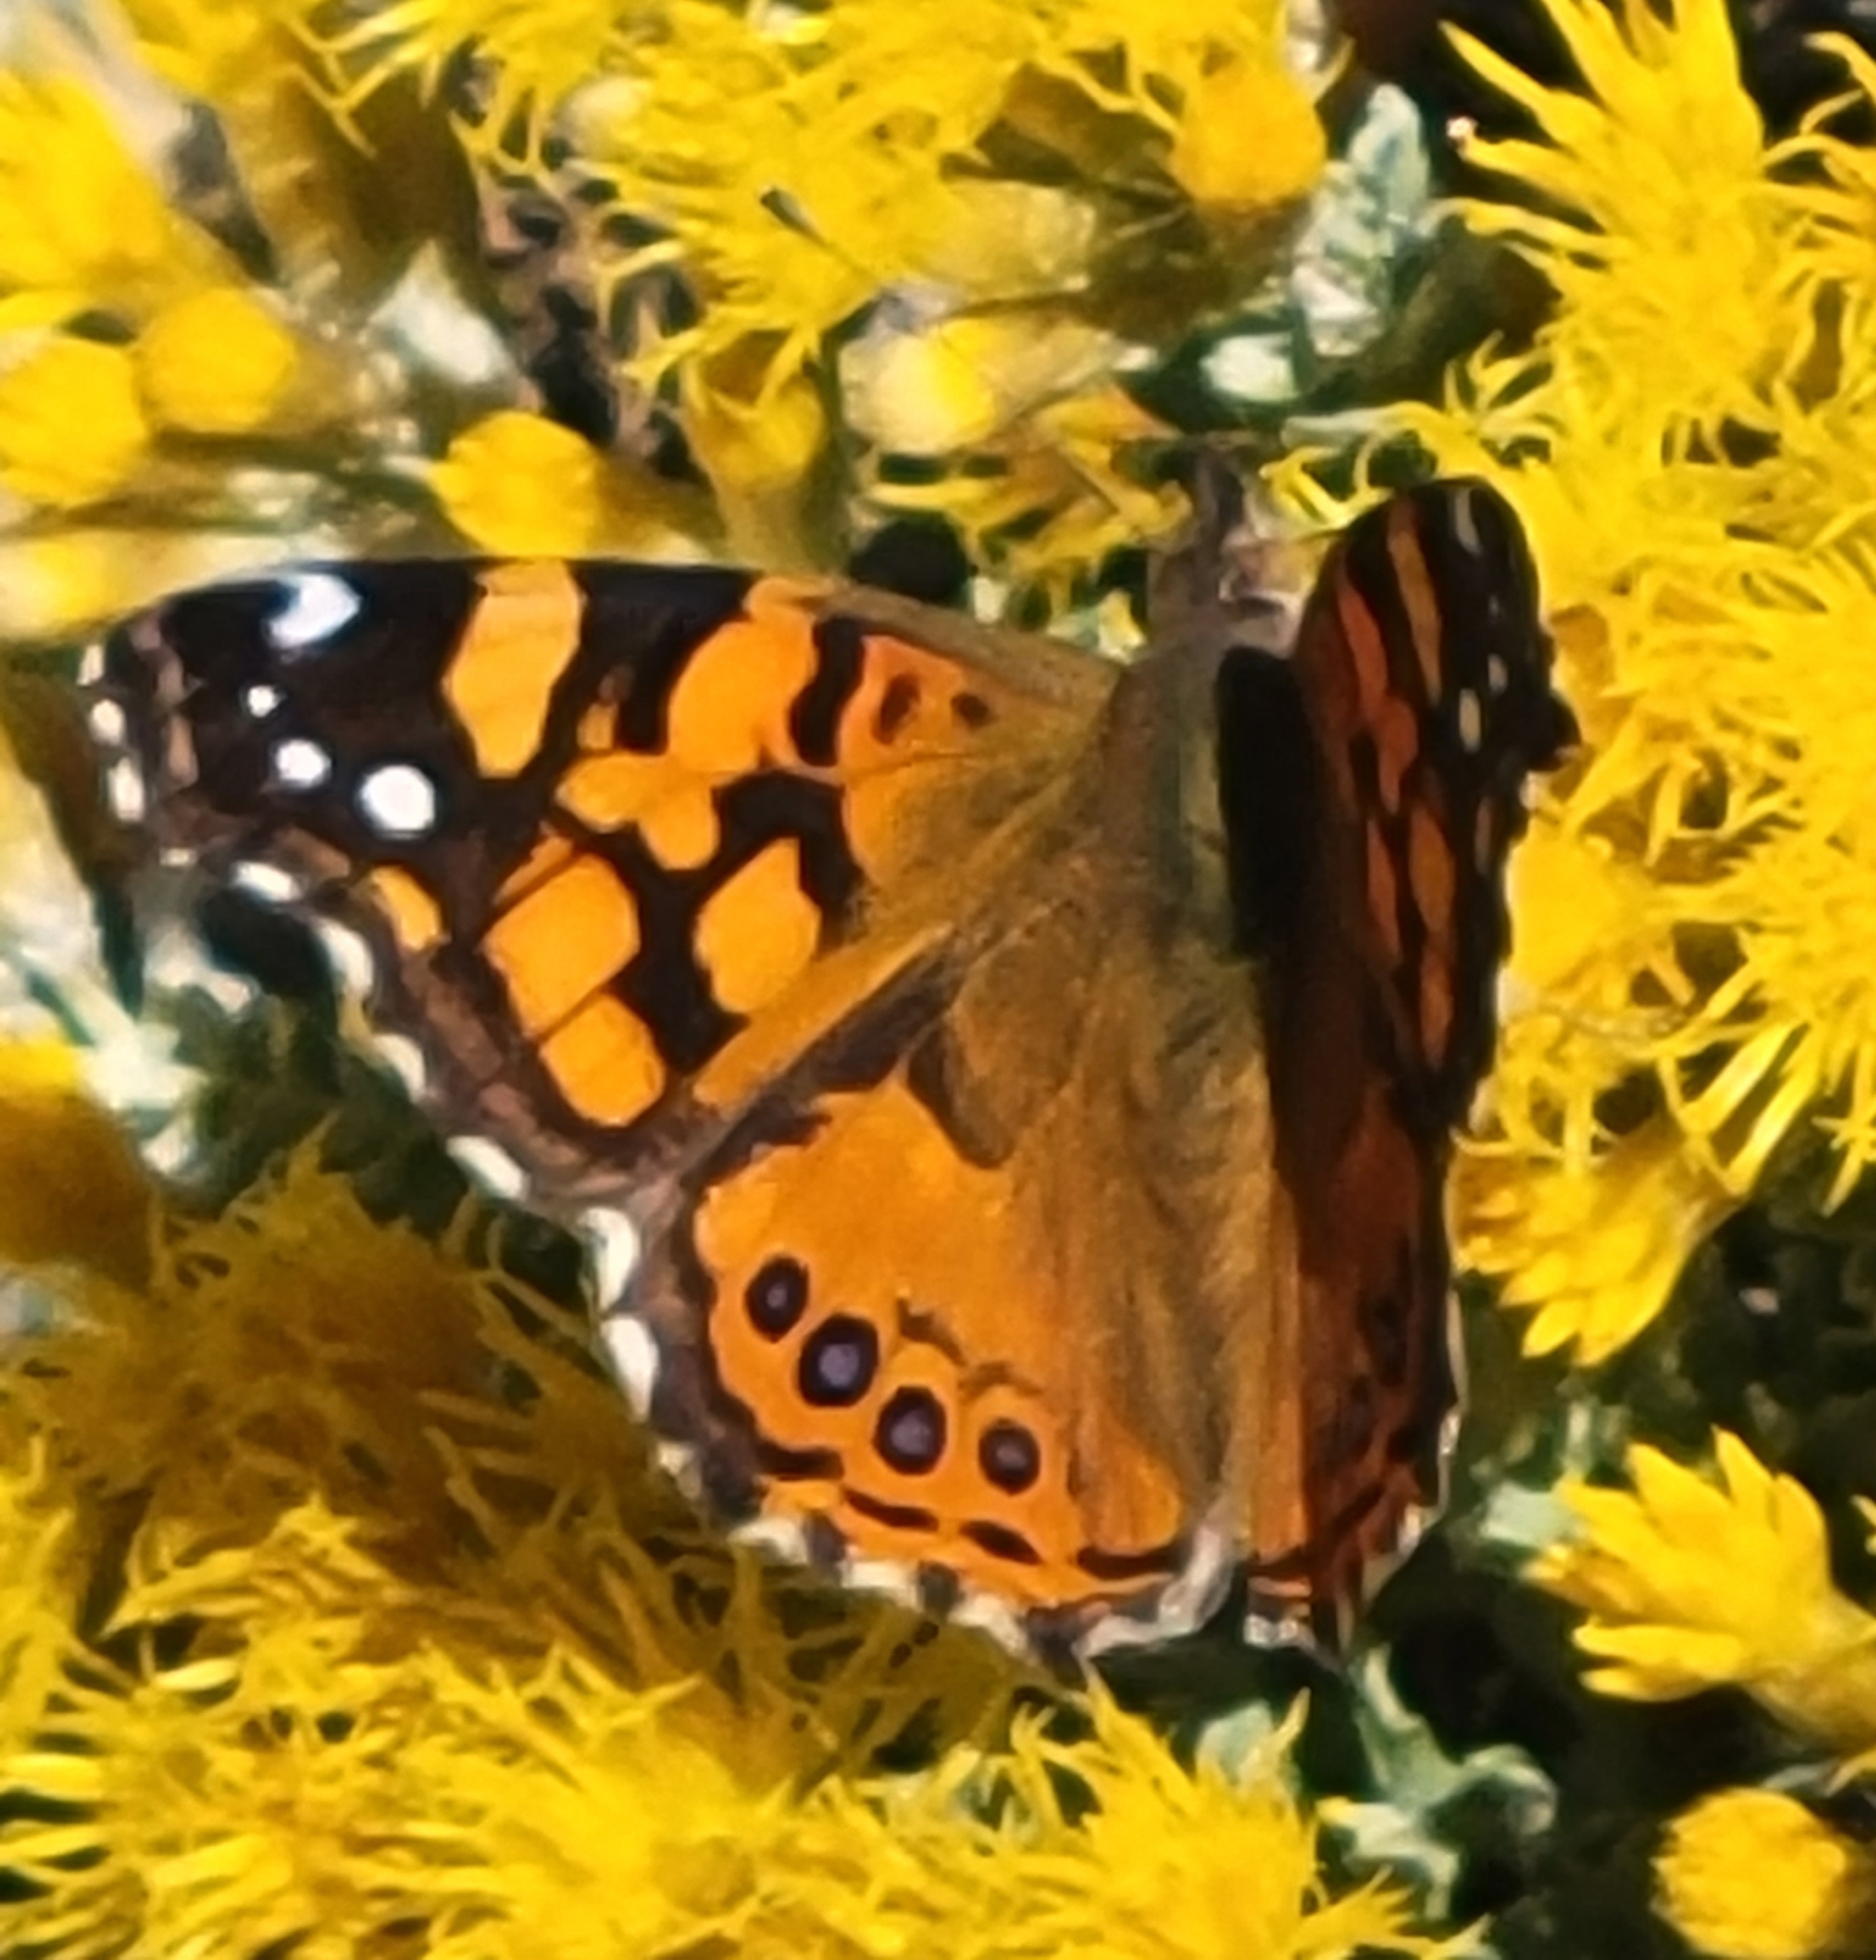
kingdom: Animalia
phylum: Arthropoda
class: Insecta
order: Lepidoptera
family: Nymphalidae
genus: Vanessa
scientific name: Vanessa annabella
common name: West coast lady
